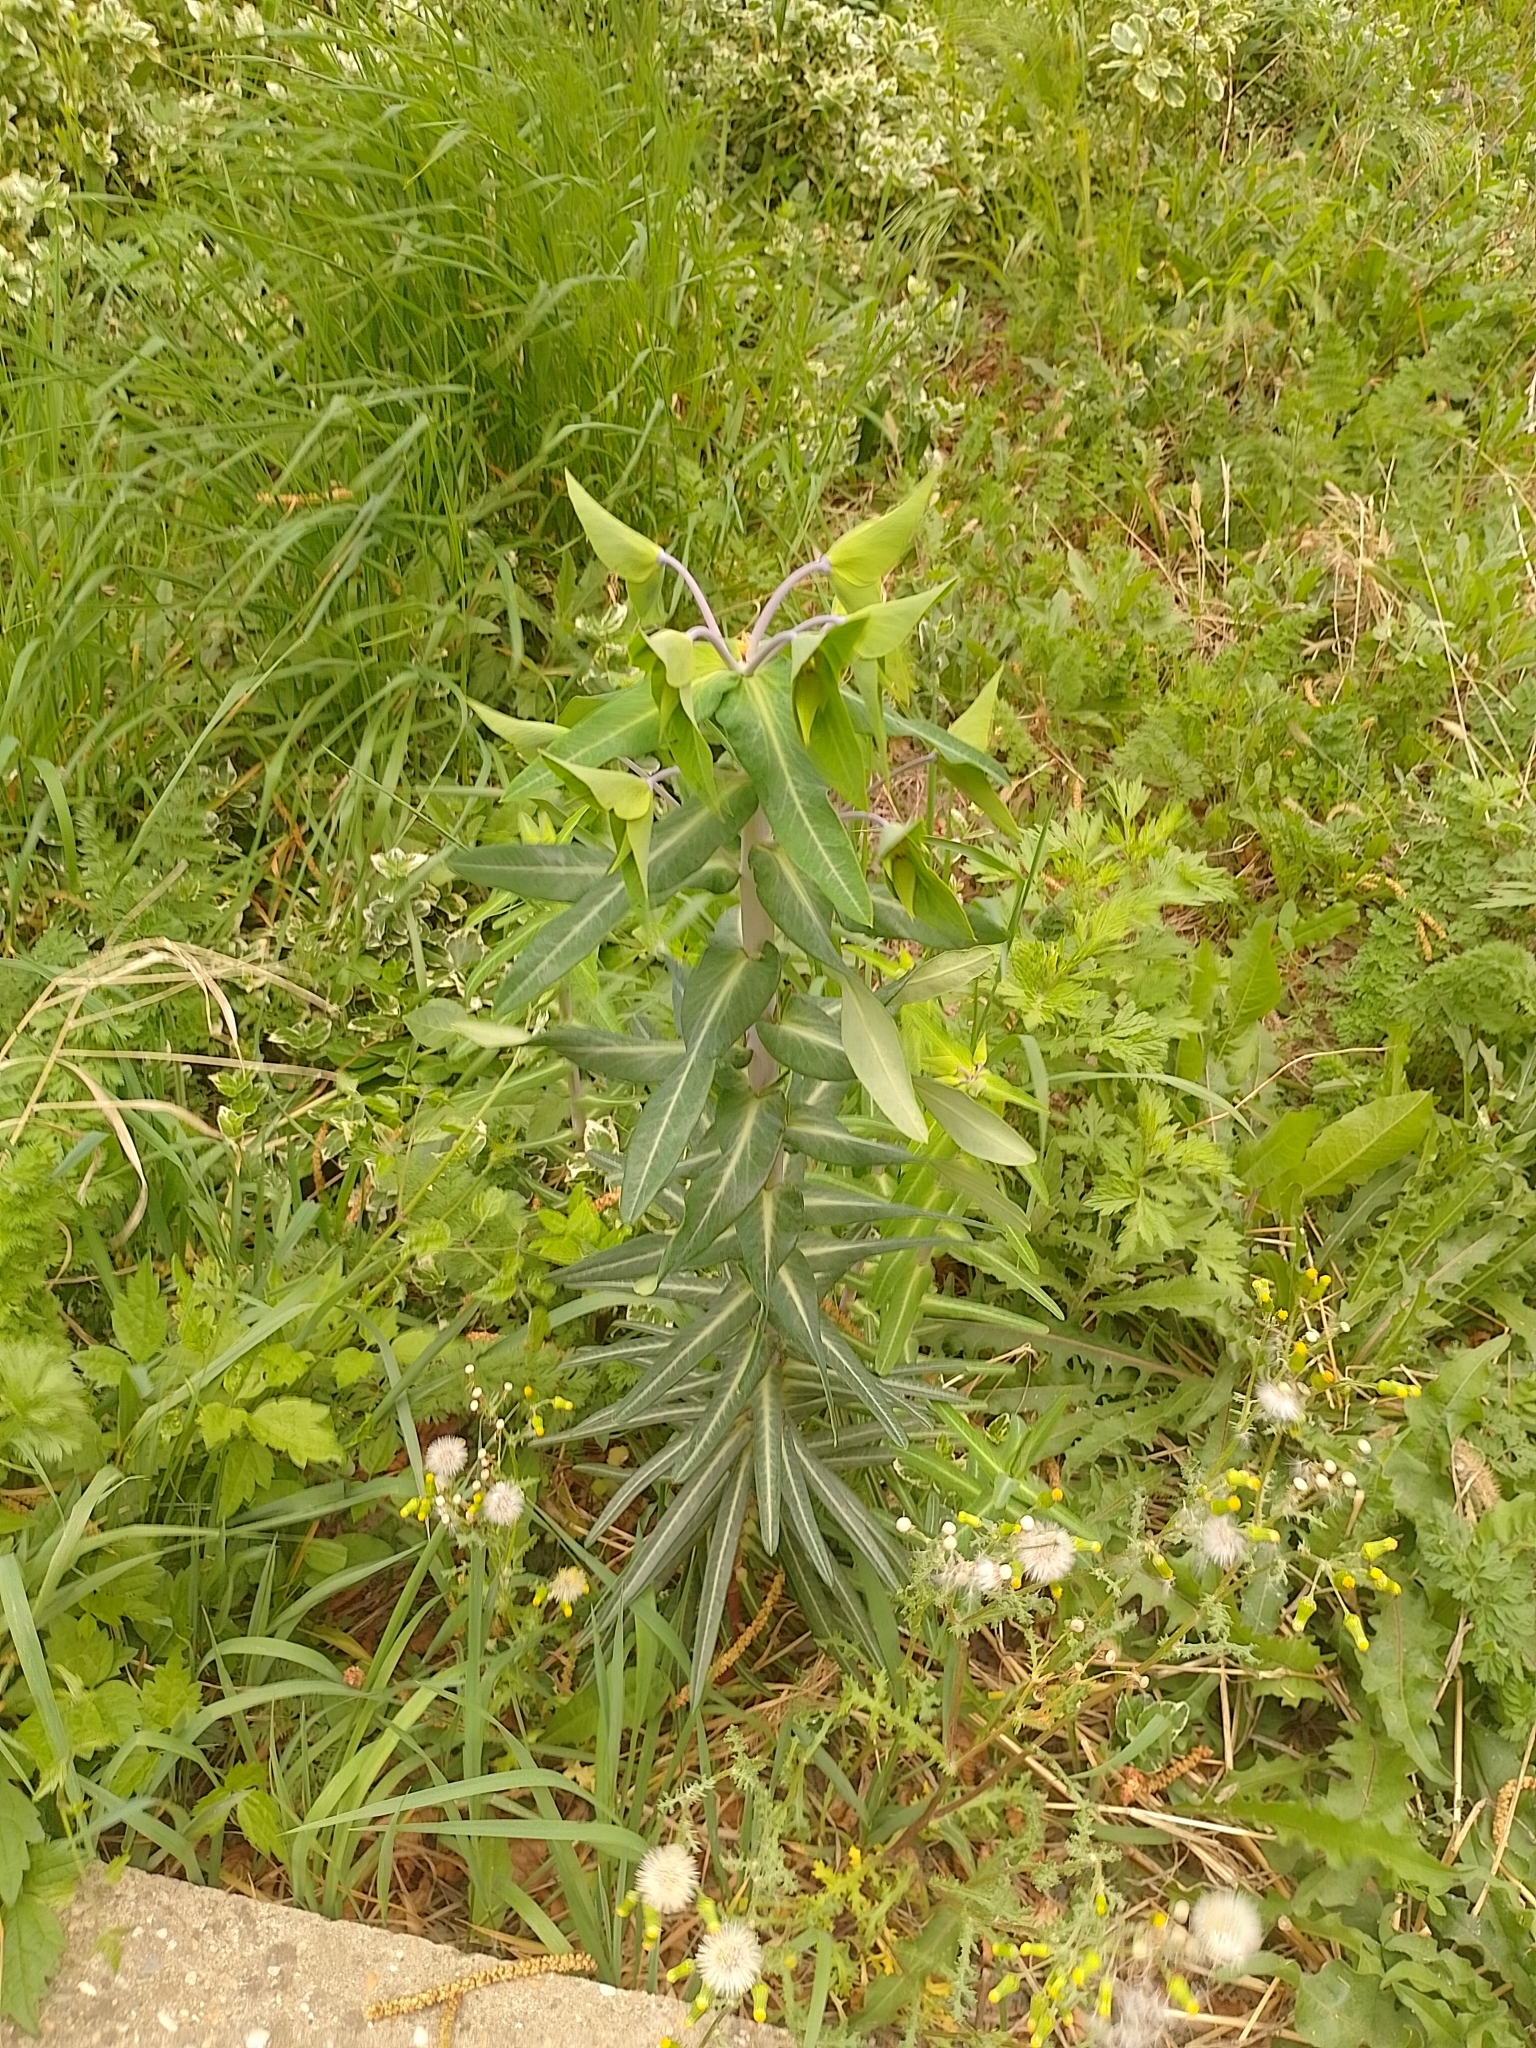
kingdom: Plantae
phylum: Tracheophyta
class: Magnoliopsida
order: Malpighiales
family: Euphorbiaceae
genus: Euphorbia
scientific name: Euphorbia lathyris
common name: Caper spurge
